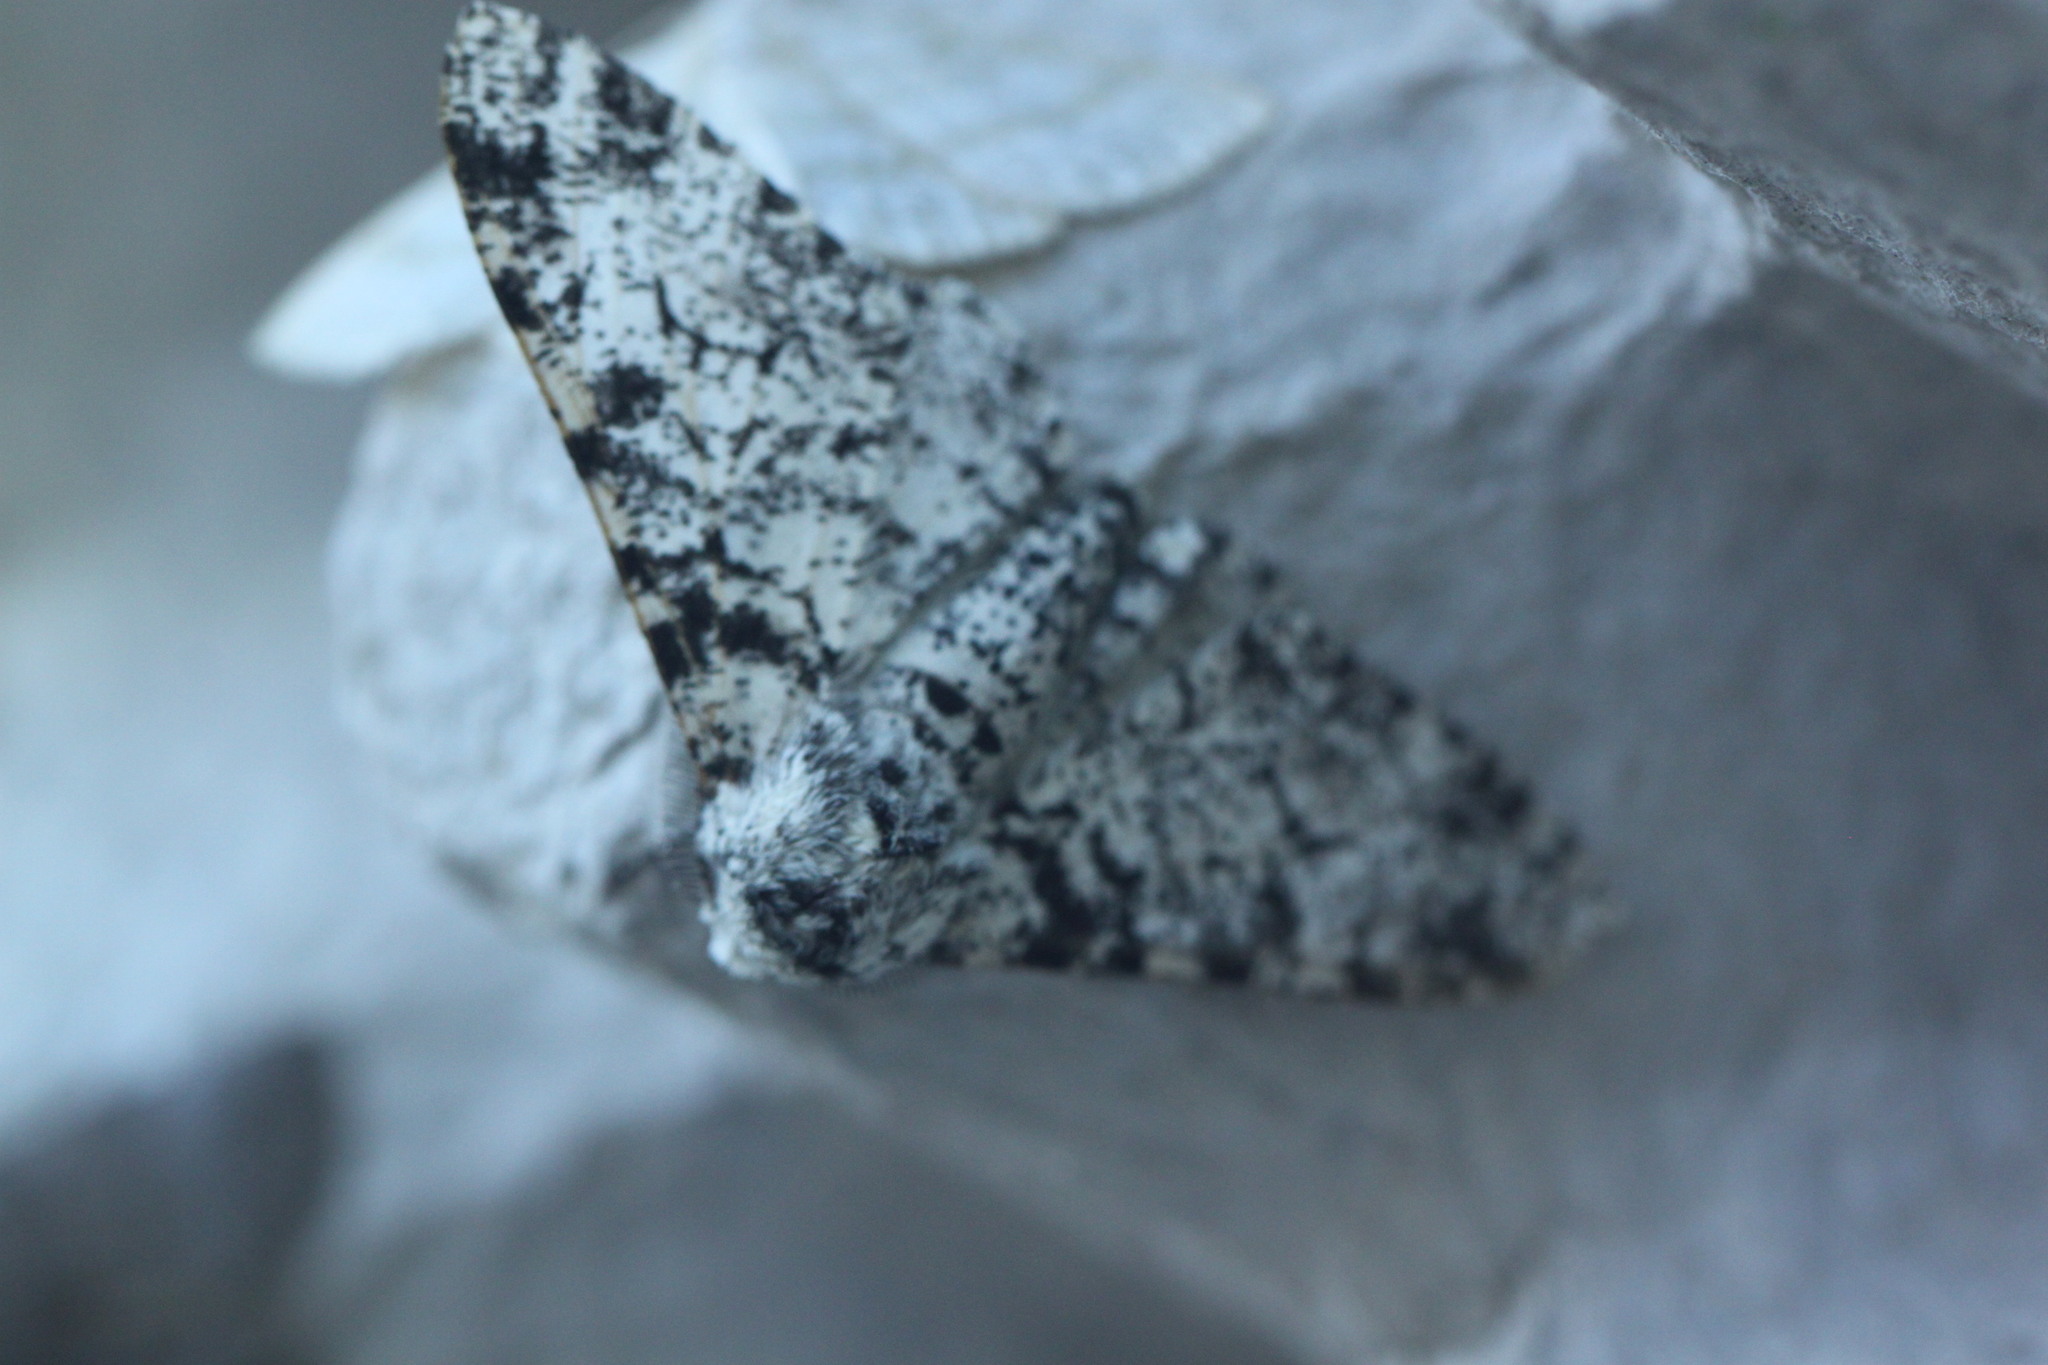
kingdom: Animalia
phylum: Arthropoda
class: Insecta
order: Lepidoptera
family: Geometridae
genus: Biston
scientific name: Biston betularia
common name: Peppered moth
